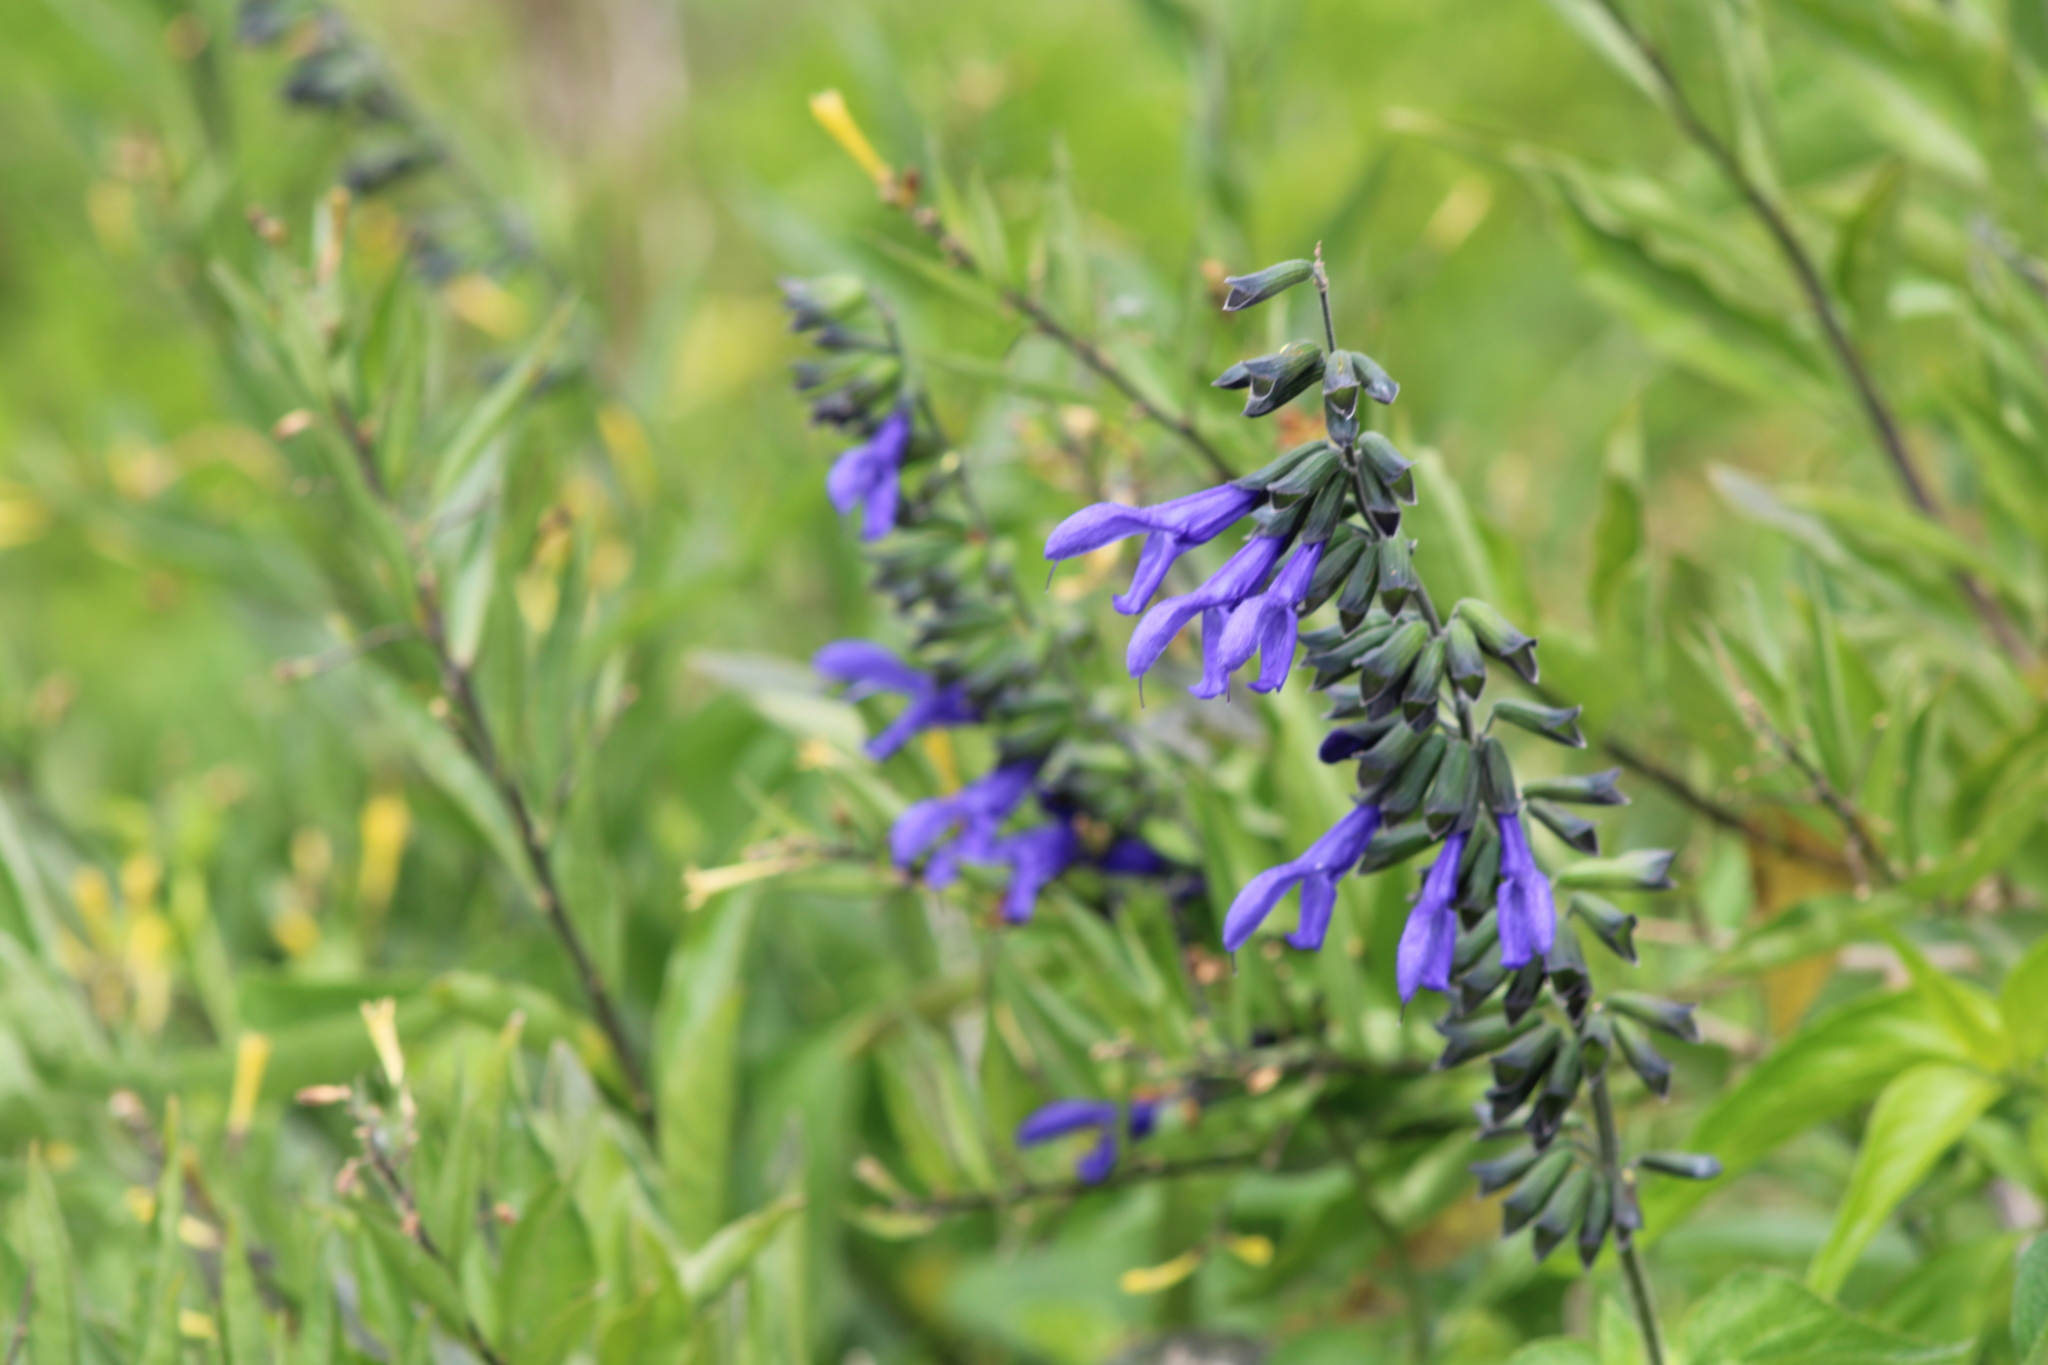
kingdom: Plantae
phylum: Tracheophyta
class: Magnoliopsida
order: Lamiales
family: Lamiaceae
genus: Salvia
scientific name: Salvia guaranitica
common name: Anise-scented sage
